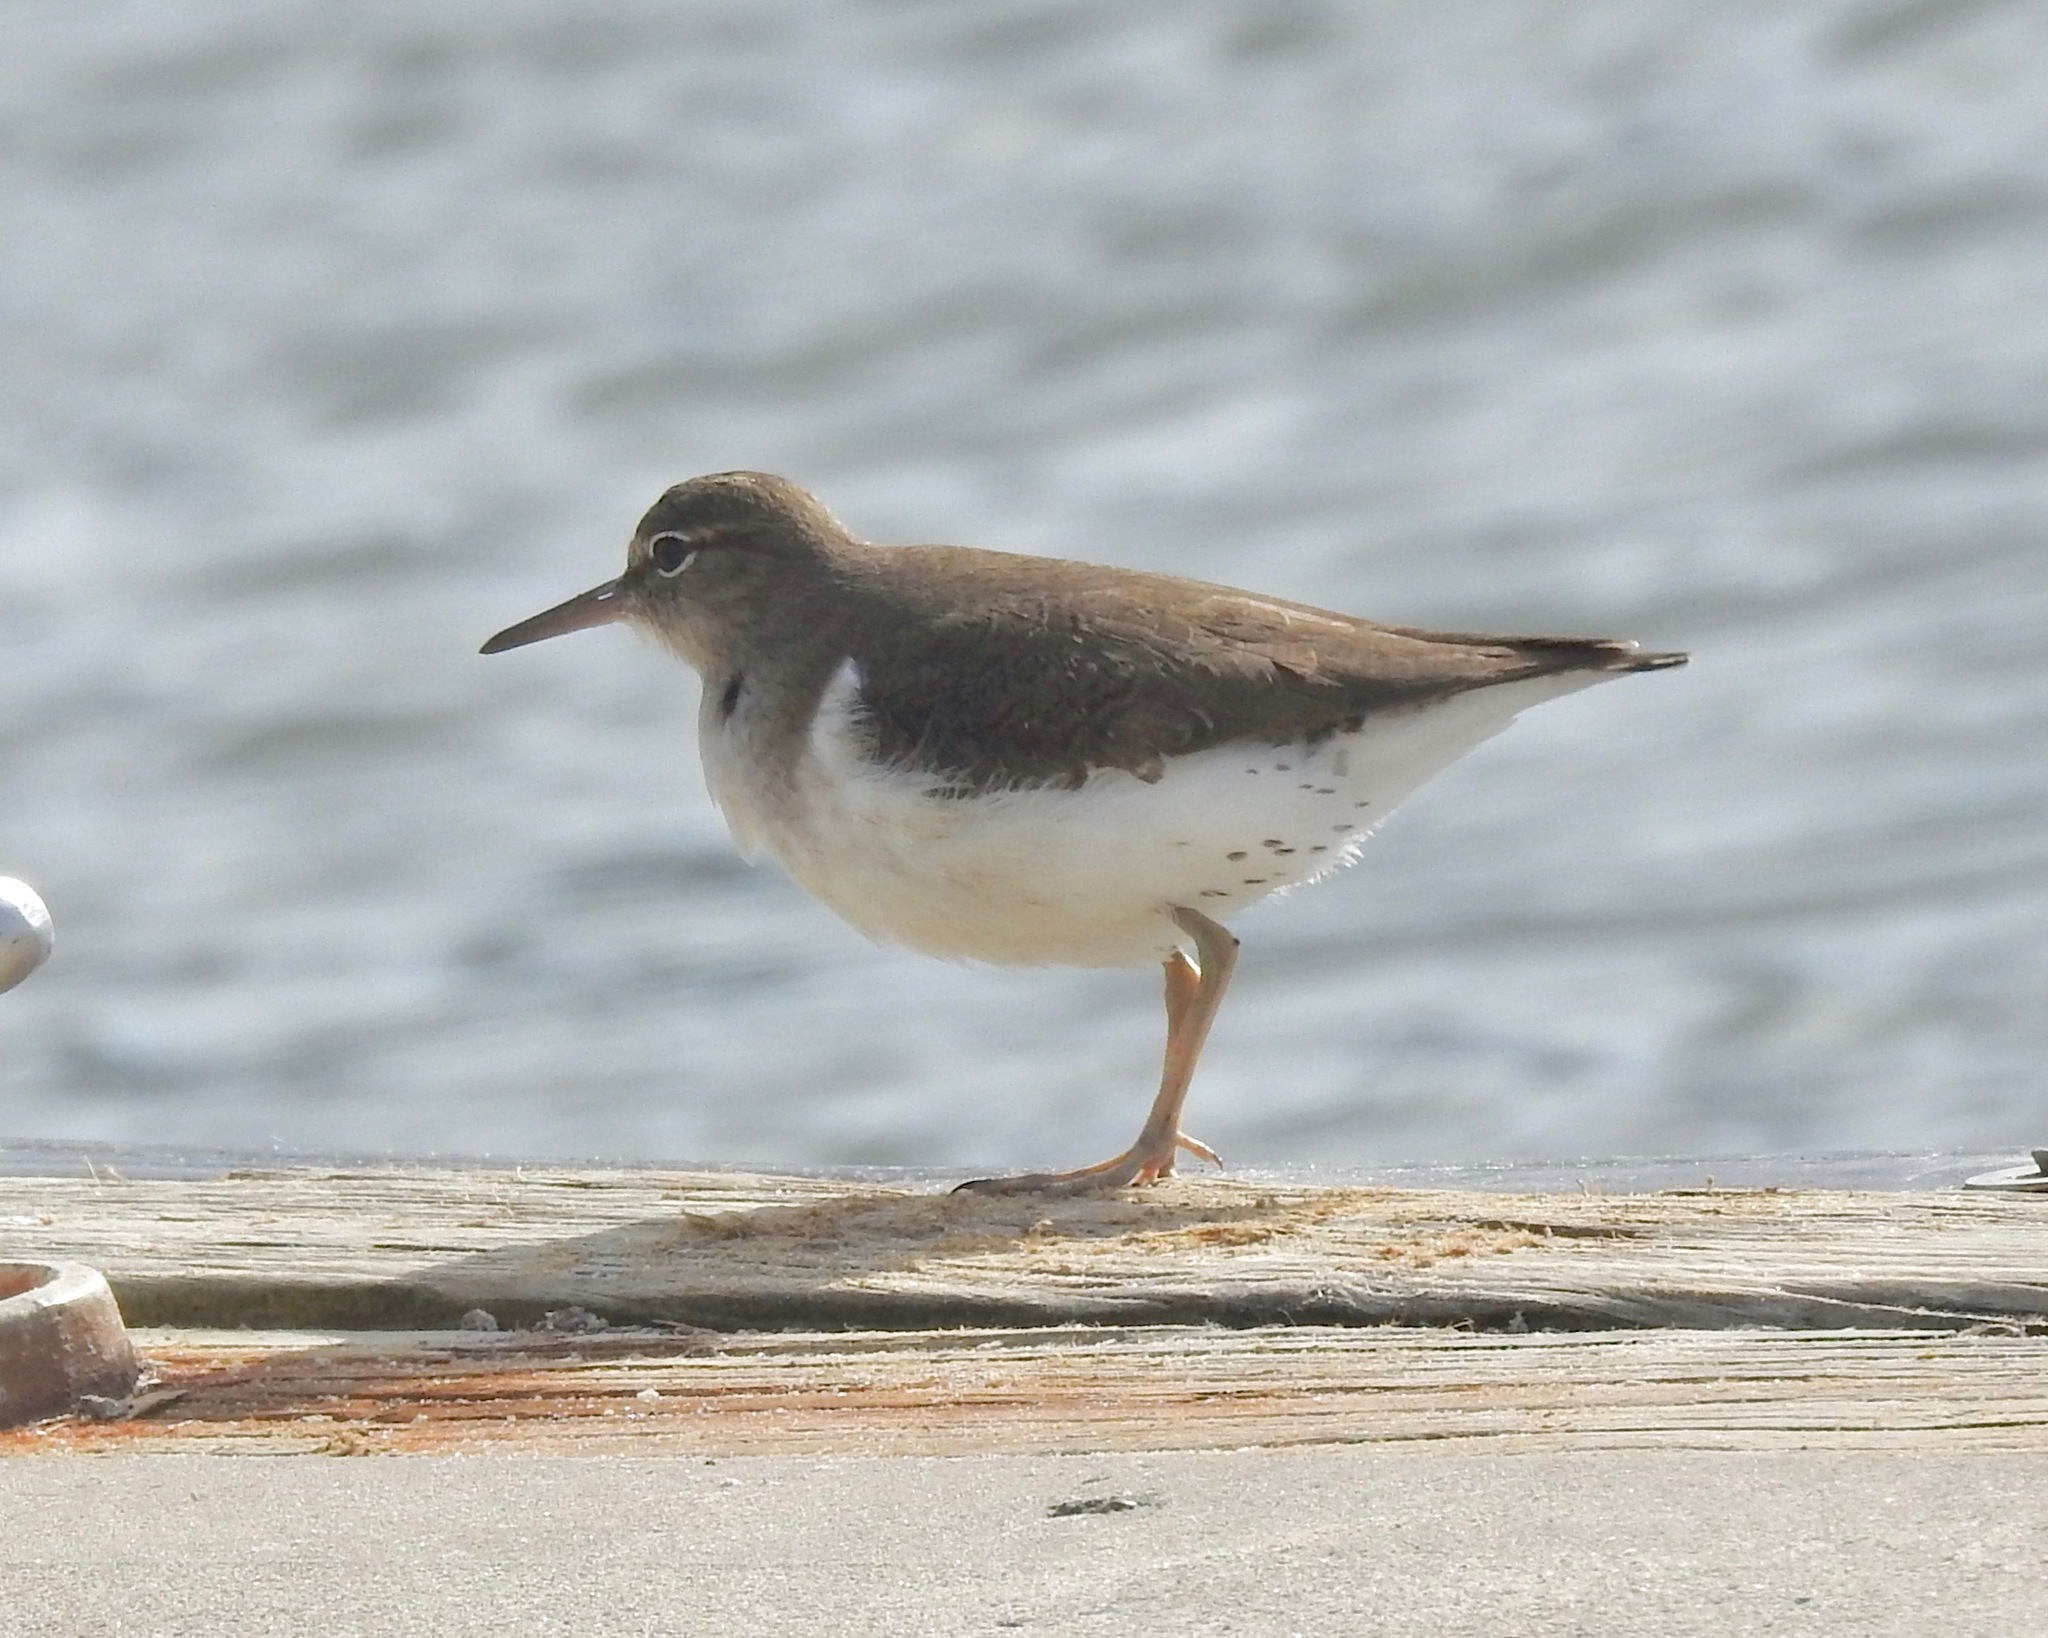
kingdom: Animalia
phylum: Chordata
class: Aves
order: Charadriiformes
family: Scolopacidae
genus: Actitis
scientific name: Actitis macularius
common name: Spotted sandpiper
